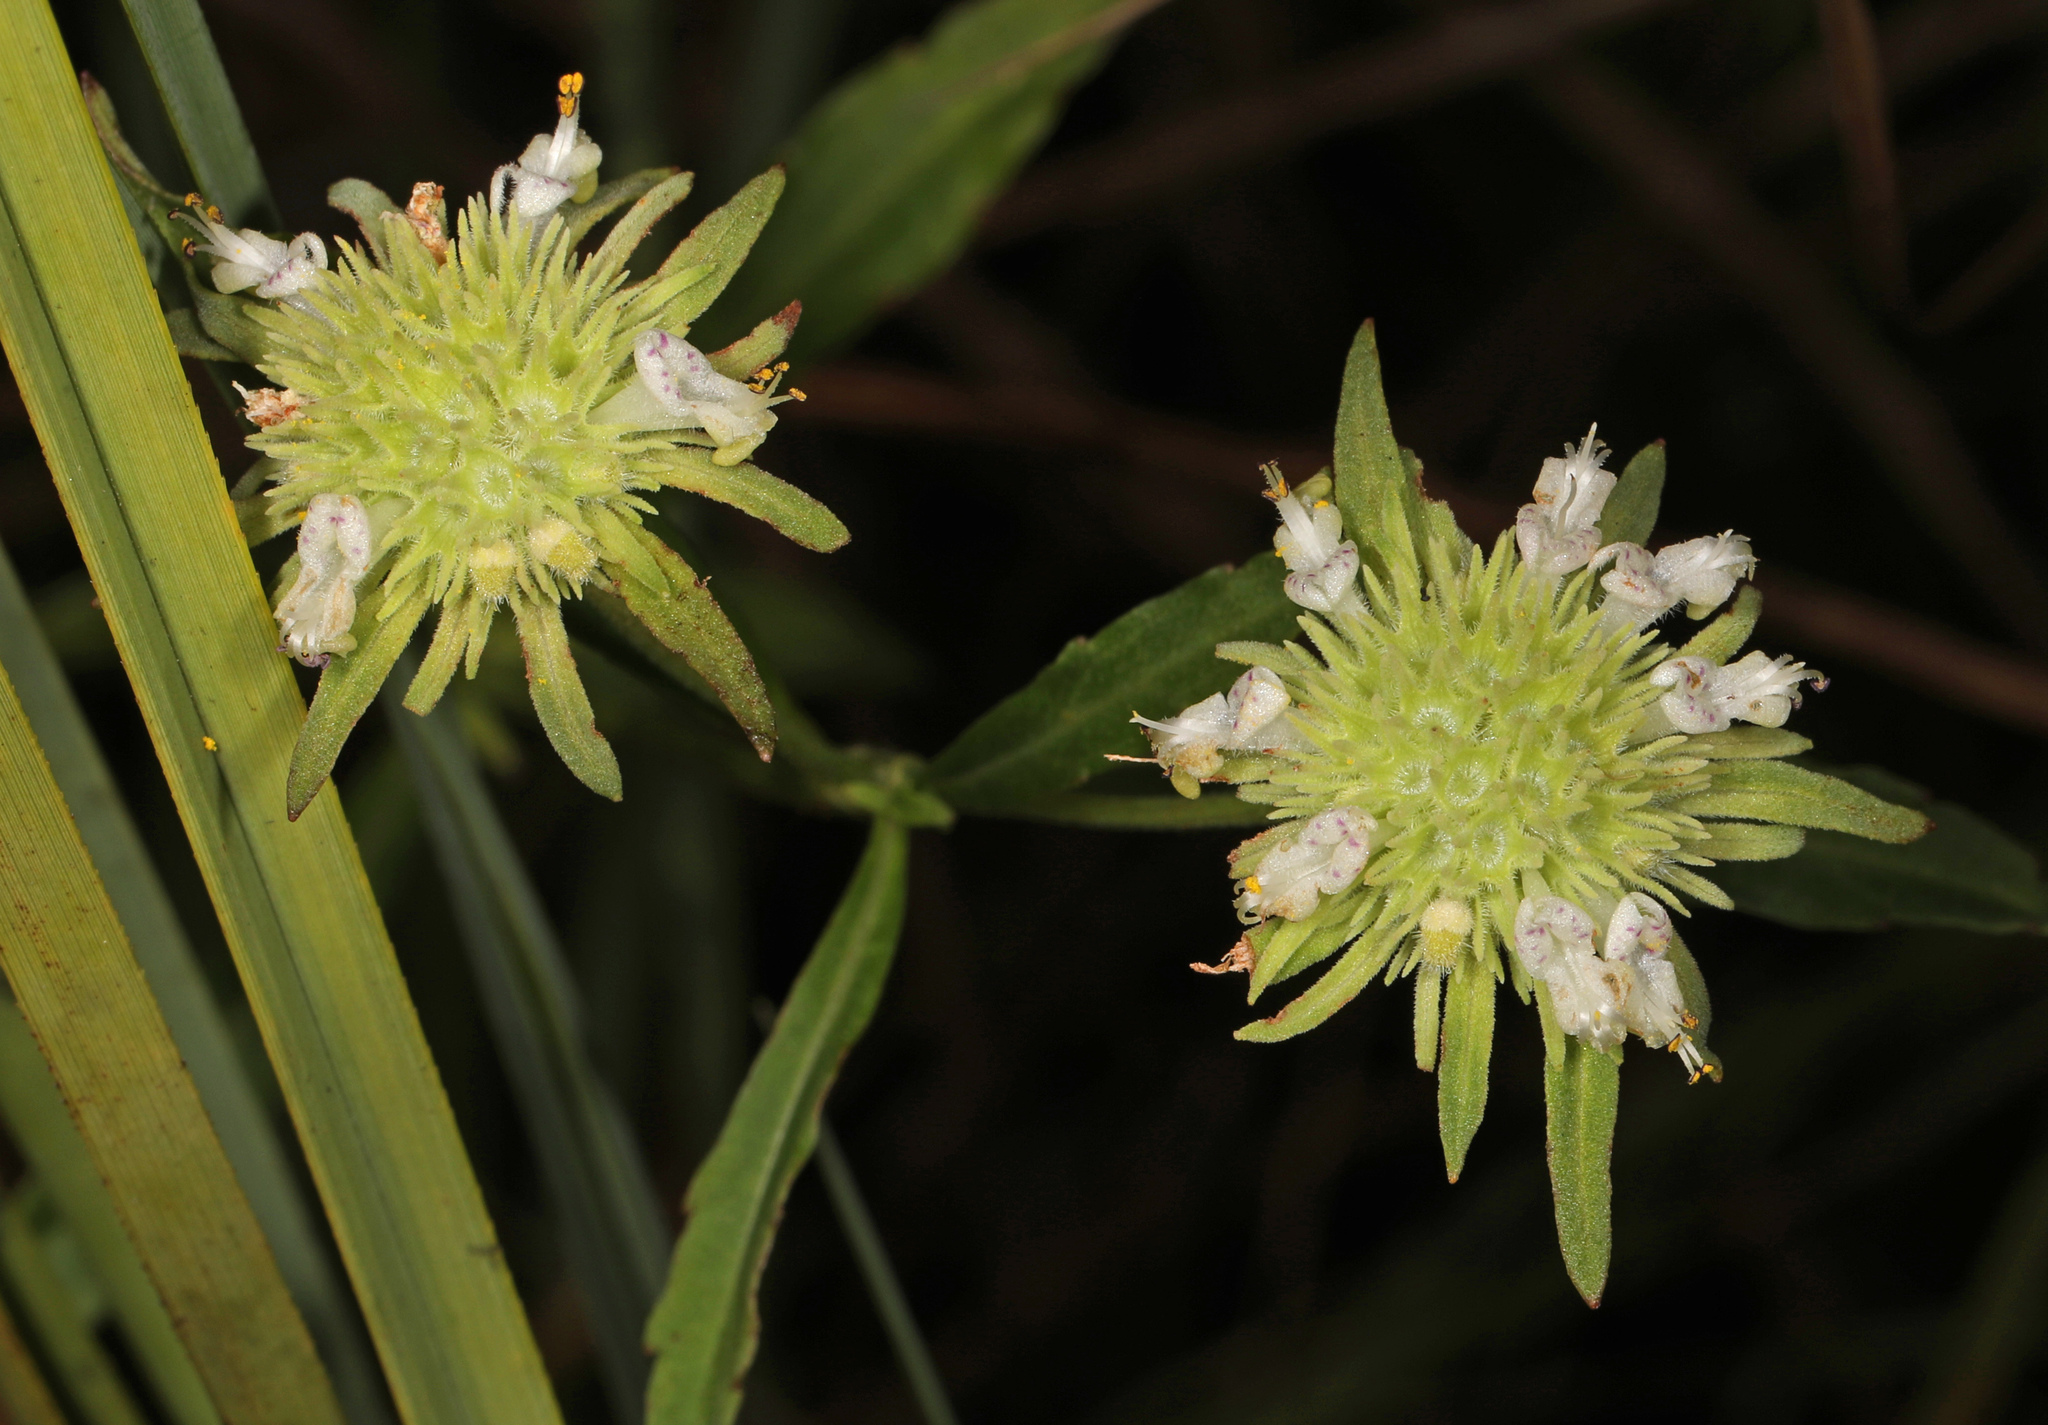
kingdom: Plantae
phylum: Tracheophyta
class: Magnoliopsida
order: Lamiales
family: Lamiaceae
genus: Hyptis
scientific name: Hyptis alata
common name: Cluster bush-mint
